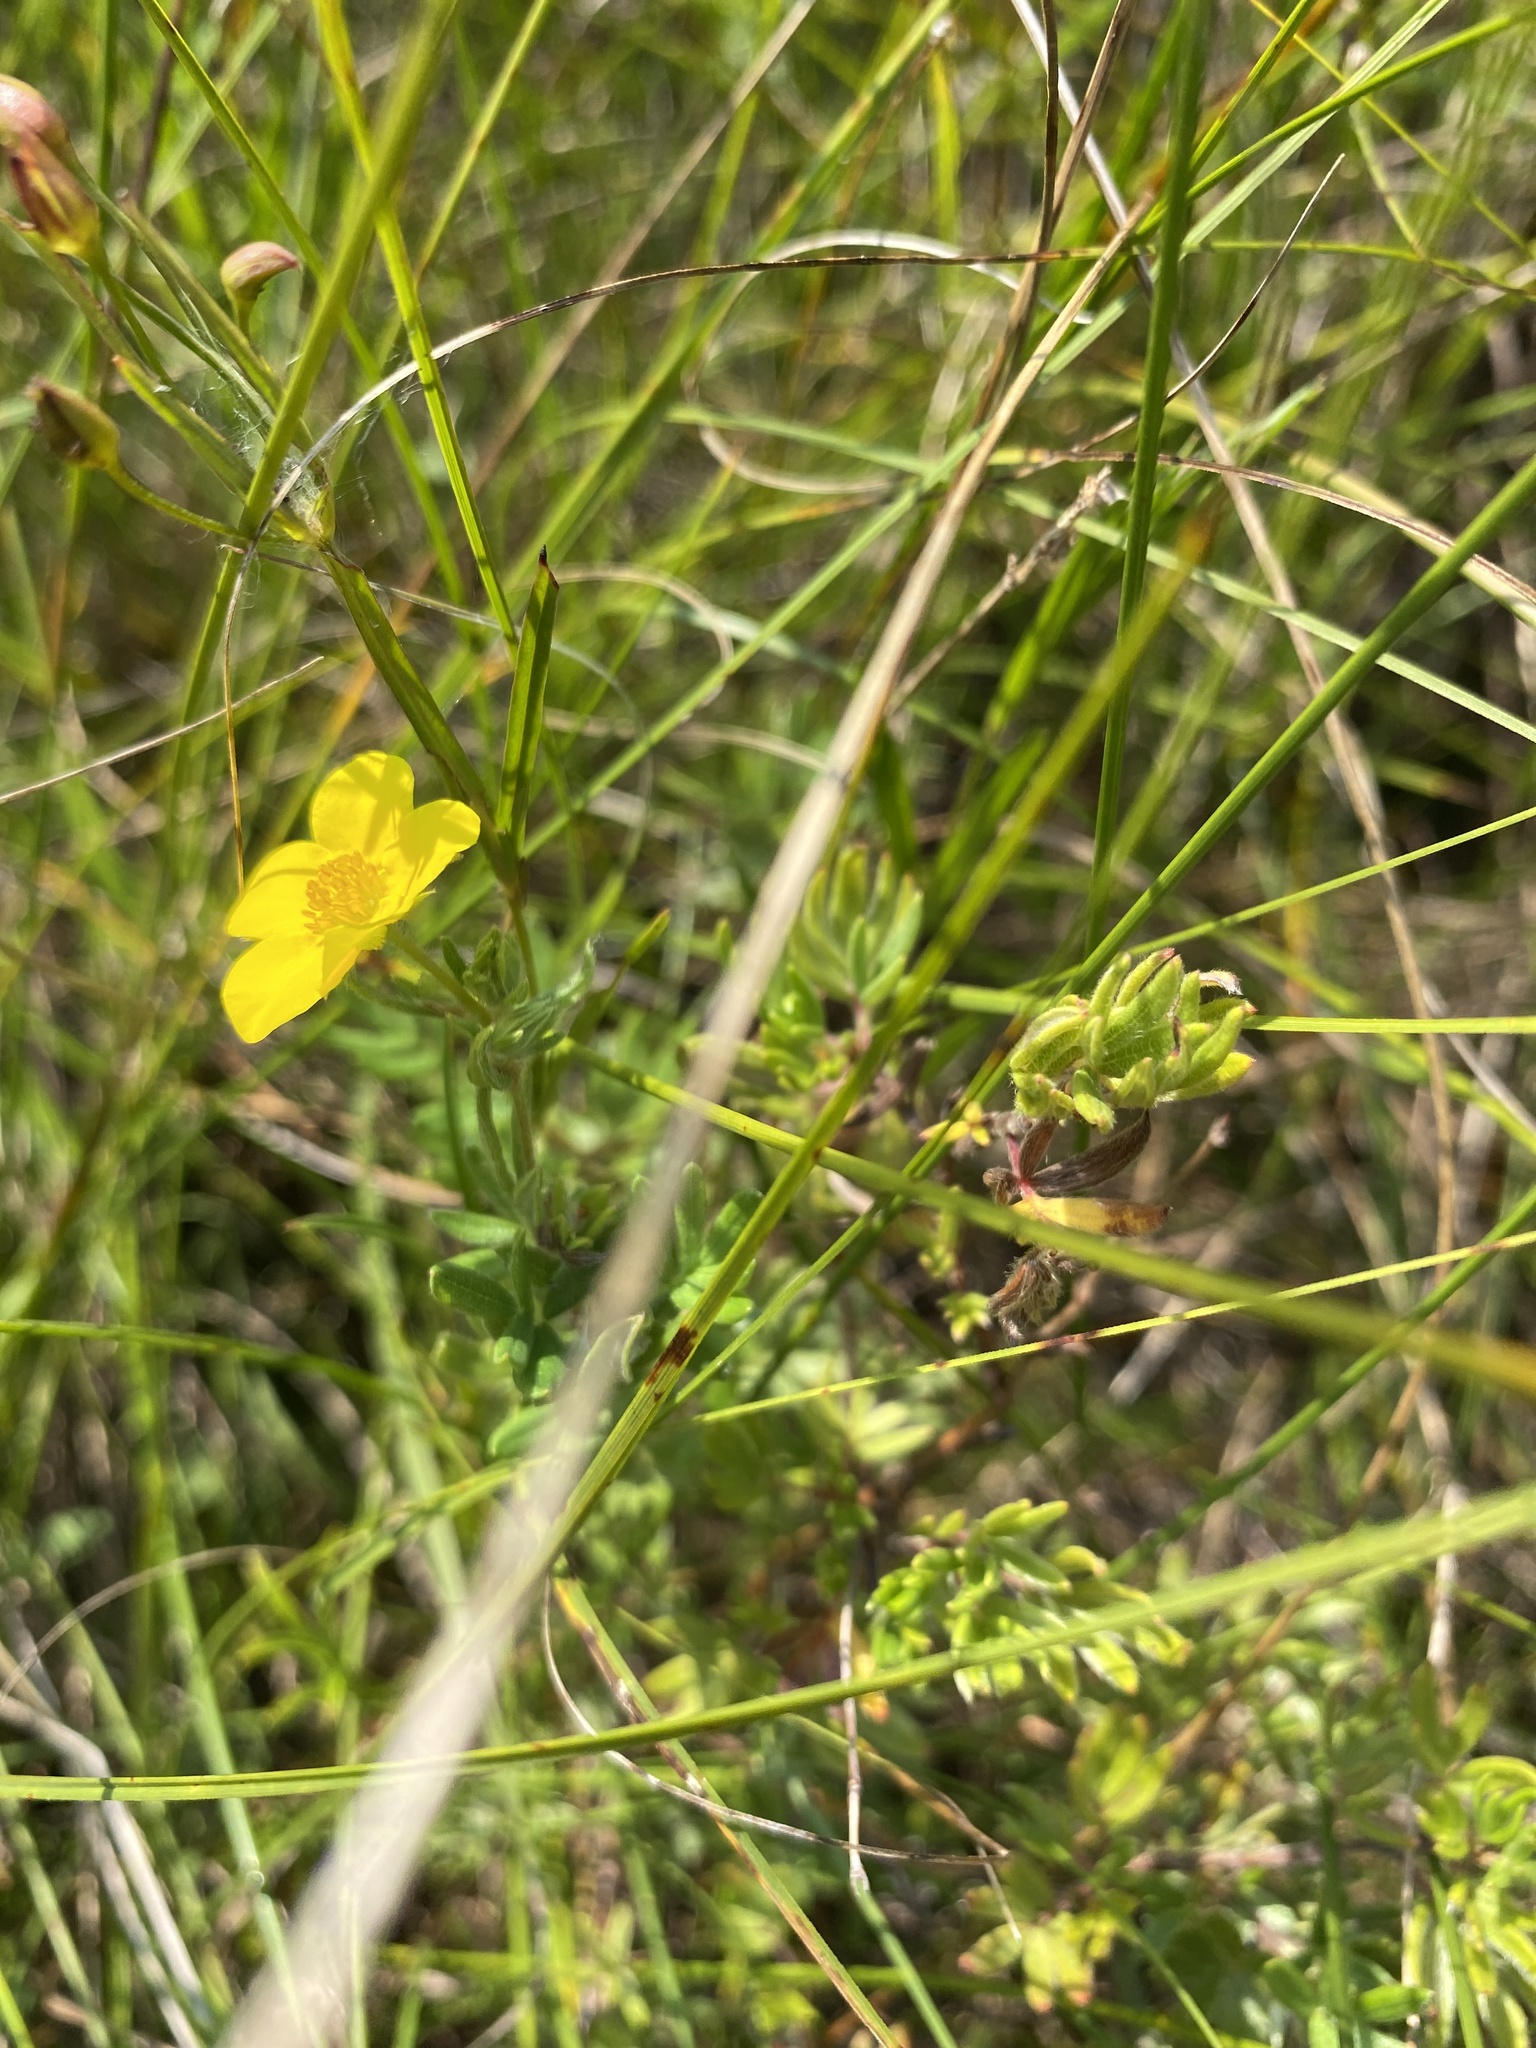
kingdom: Plantae
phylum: Tracheophyta
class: Magnoliopsida
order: Rosales
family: Rosaceae
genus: Dasiphora
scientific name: Dasiphora fruticosa
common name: Shrubby cinquefoil
